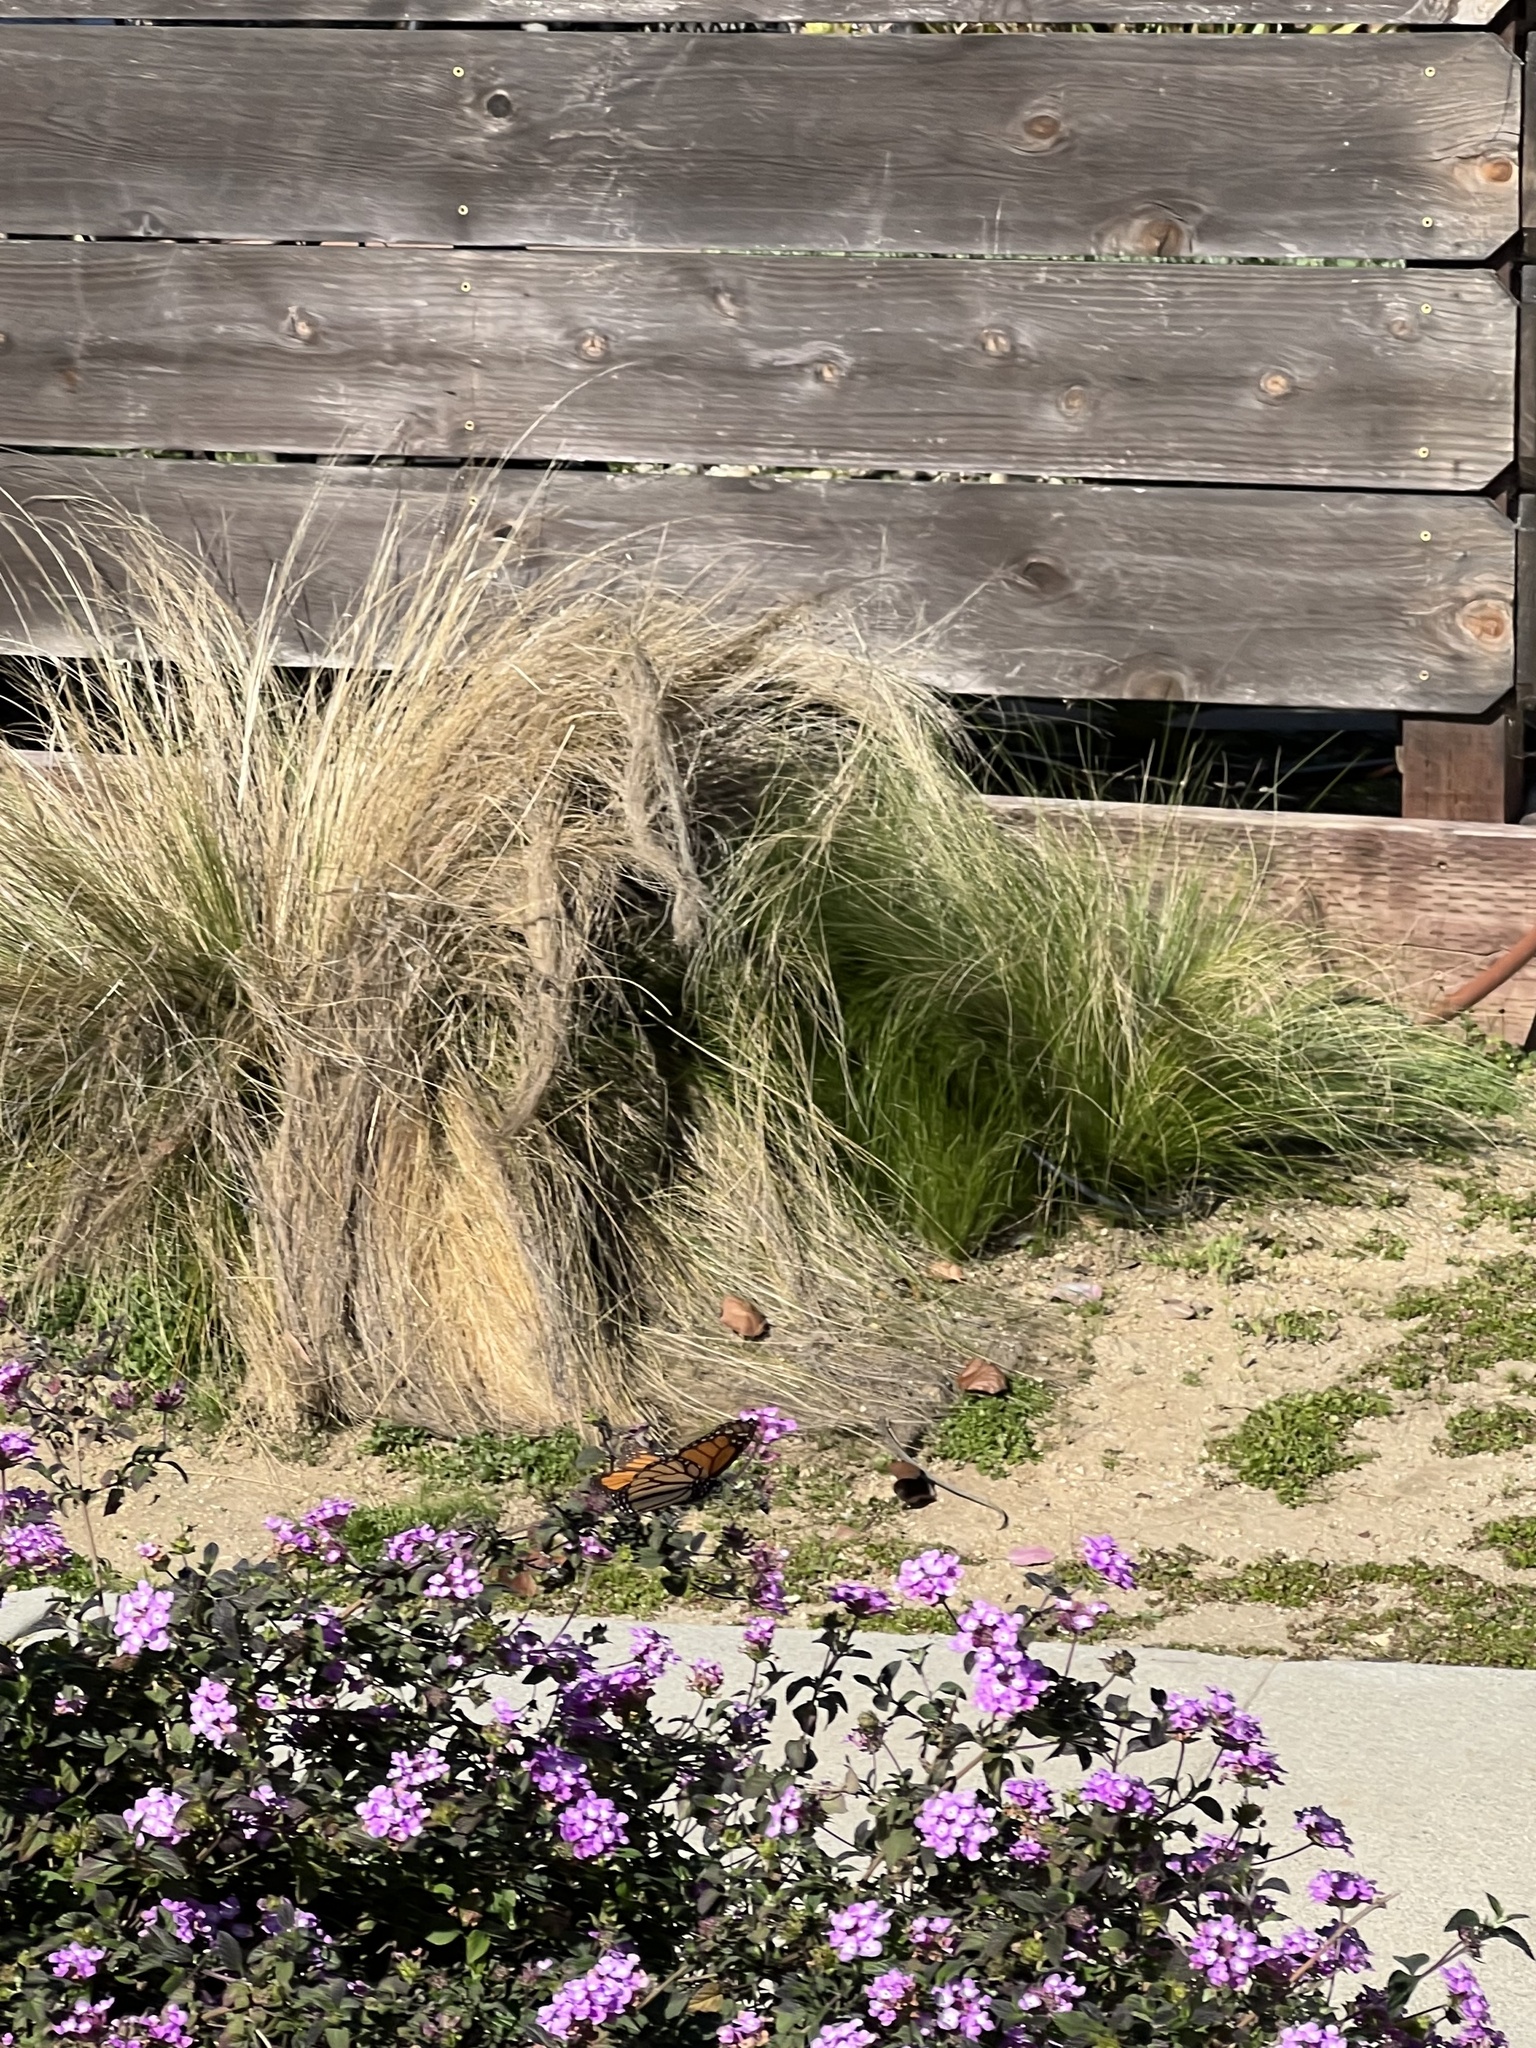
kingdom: Animalia
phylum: Arthropoda
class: Insecta
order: Lepidoptera
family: Nymphalidae
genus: Danaus
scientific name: Danaus plexippus
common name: Monarch
